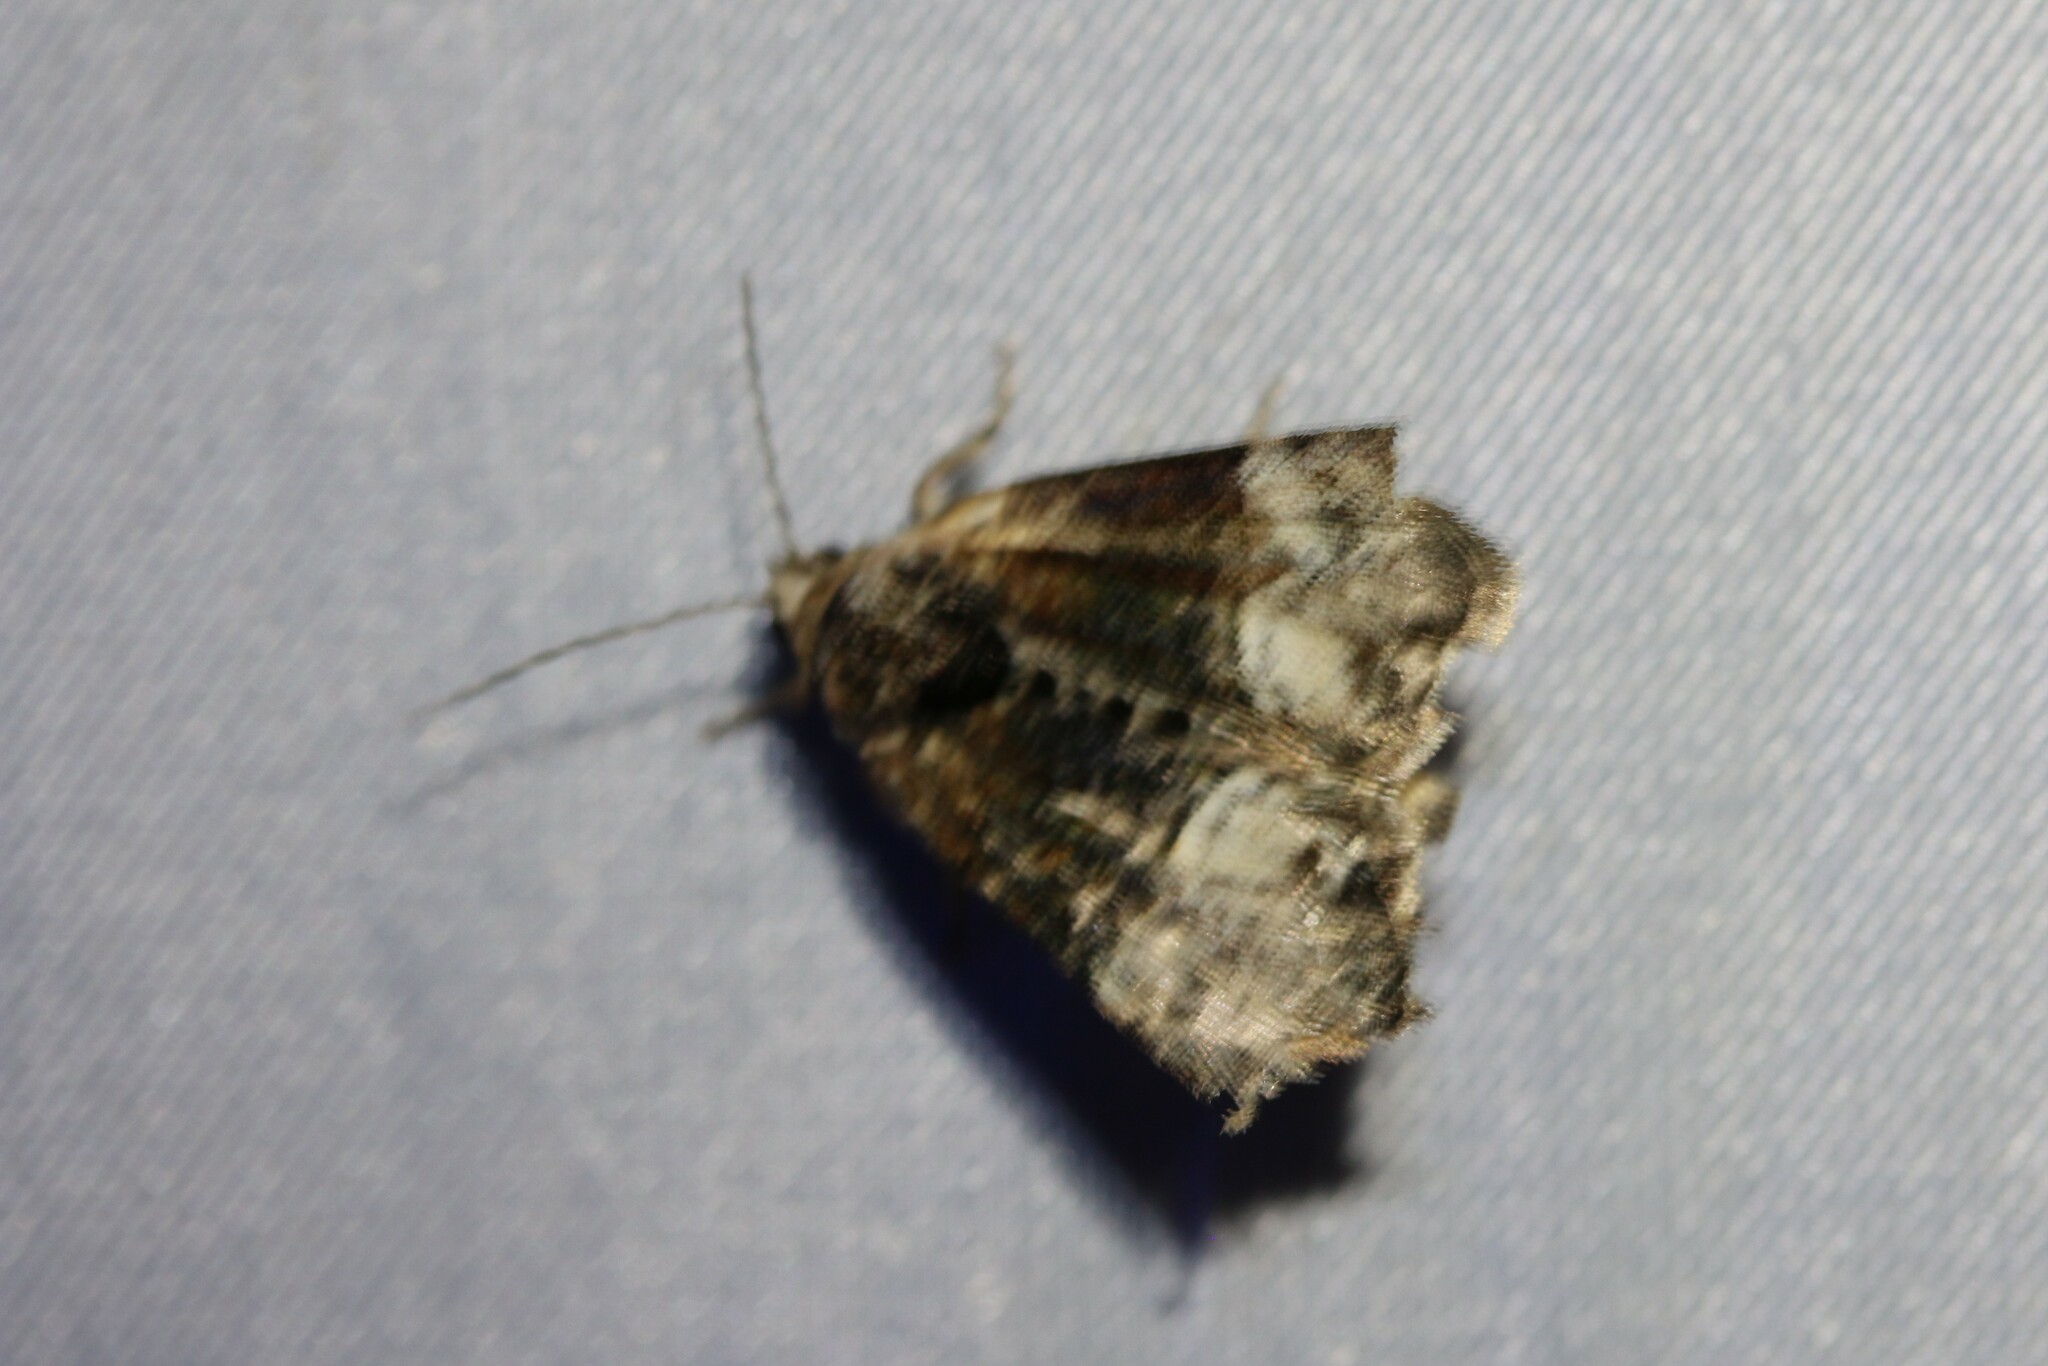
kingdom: Animalia
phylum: Arthropoda
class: Insecta
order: Lepidoptera
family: Noctuidae
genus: Mesoligia
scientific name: Mesoligia furuncula
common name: Cloaked minor
